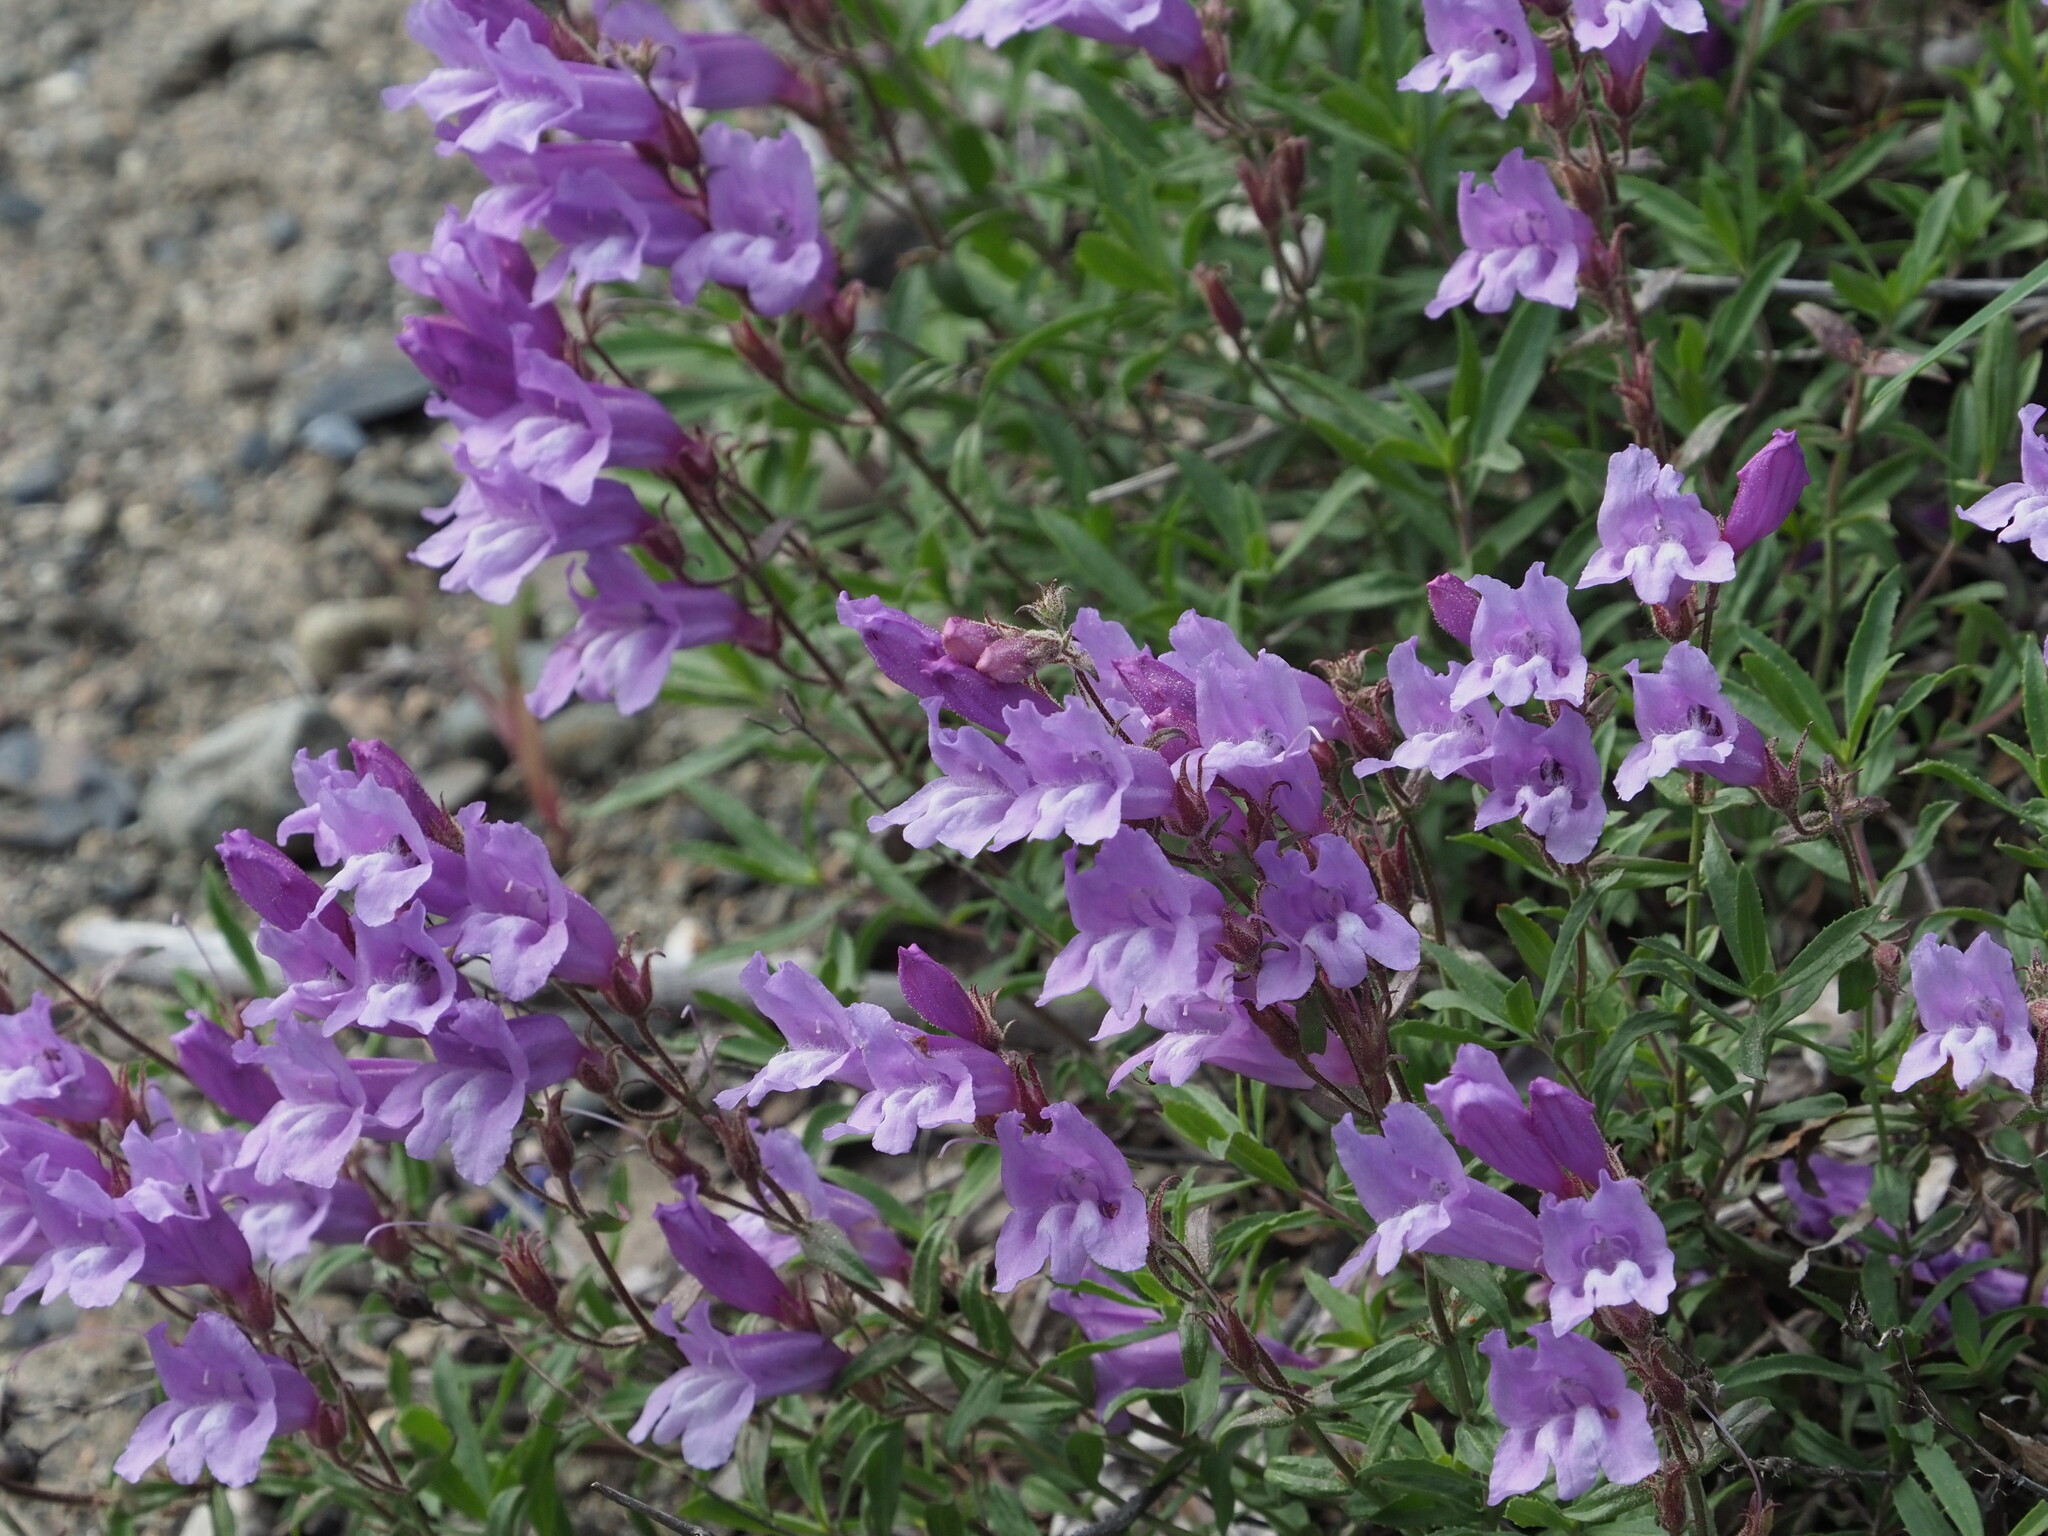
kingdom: Plantae
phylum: Tracheophyta
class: Magnoliopsida
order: Lamiales
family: Plantaginaceae
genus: Penstemon
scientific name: Penstemon fruticosus
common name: Bush penstemon
